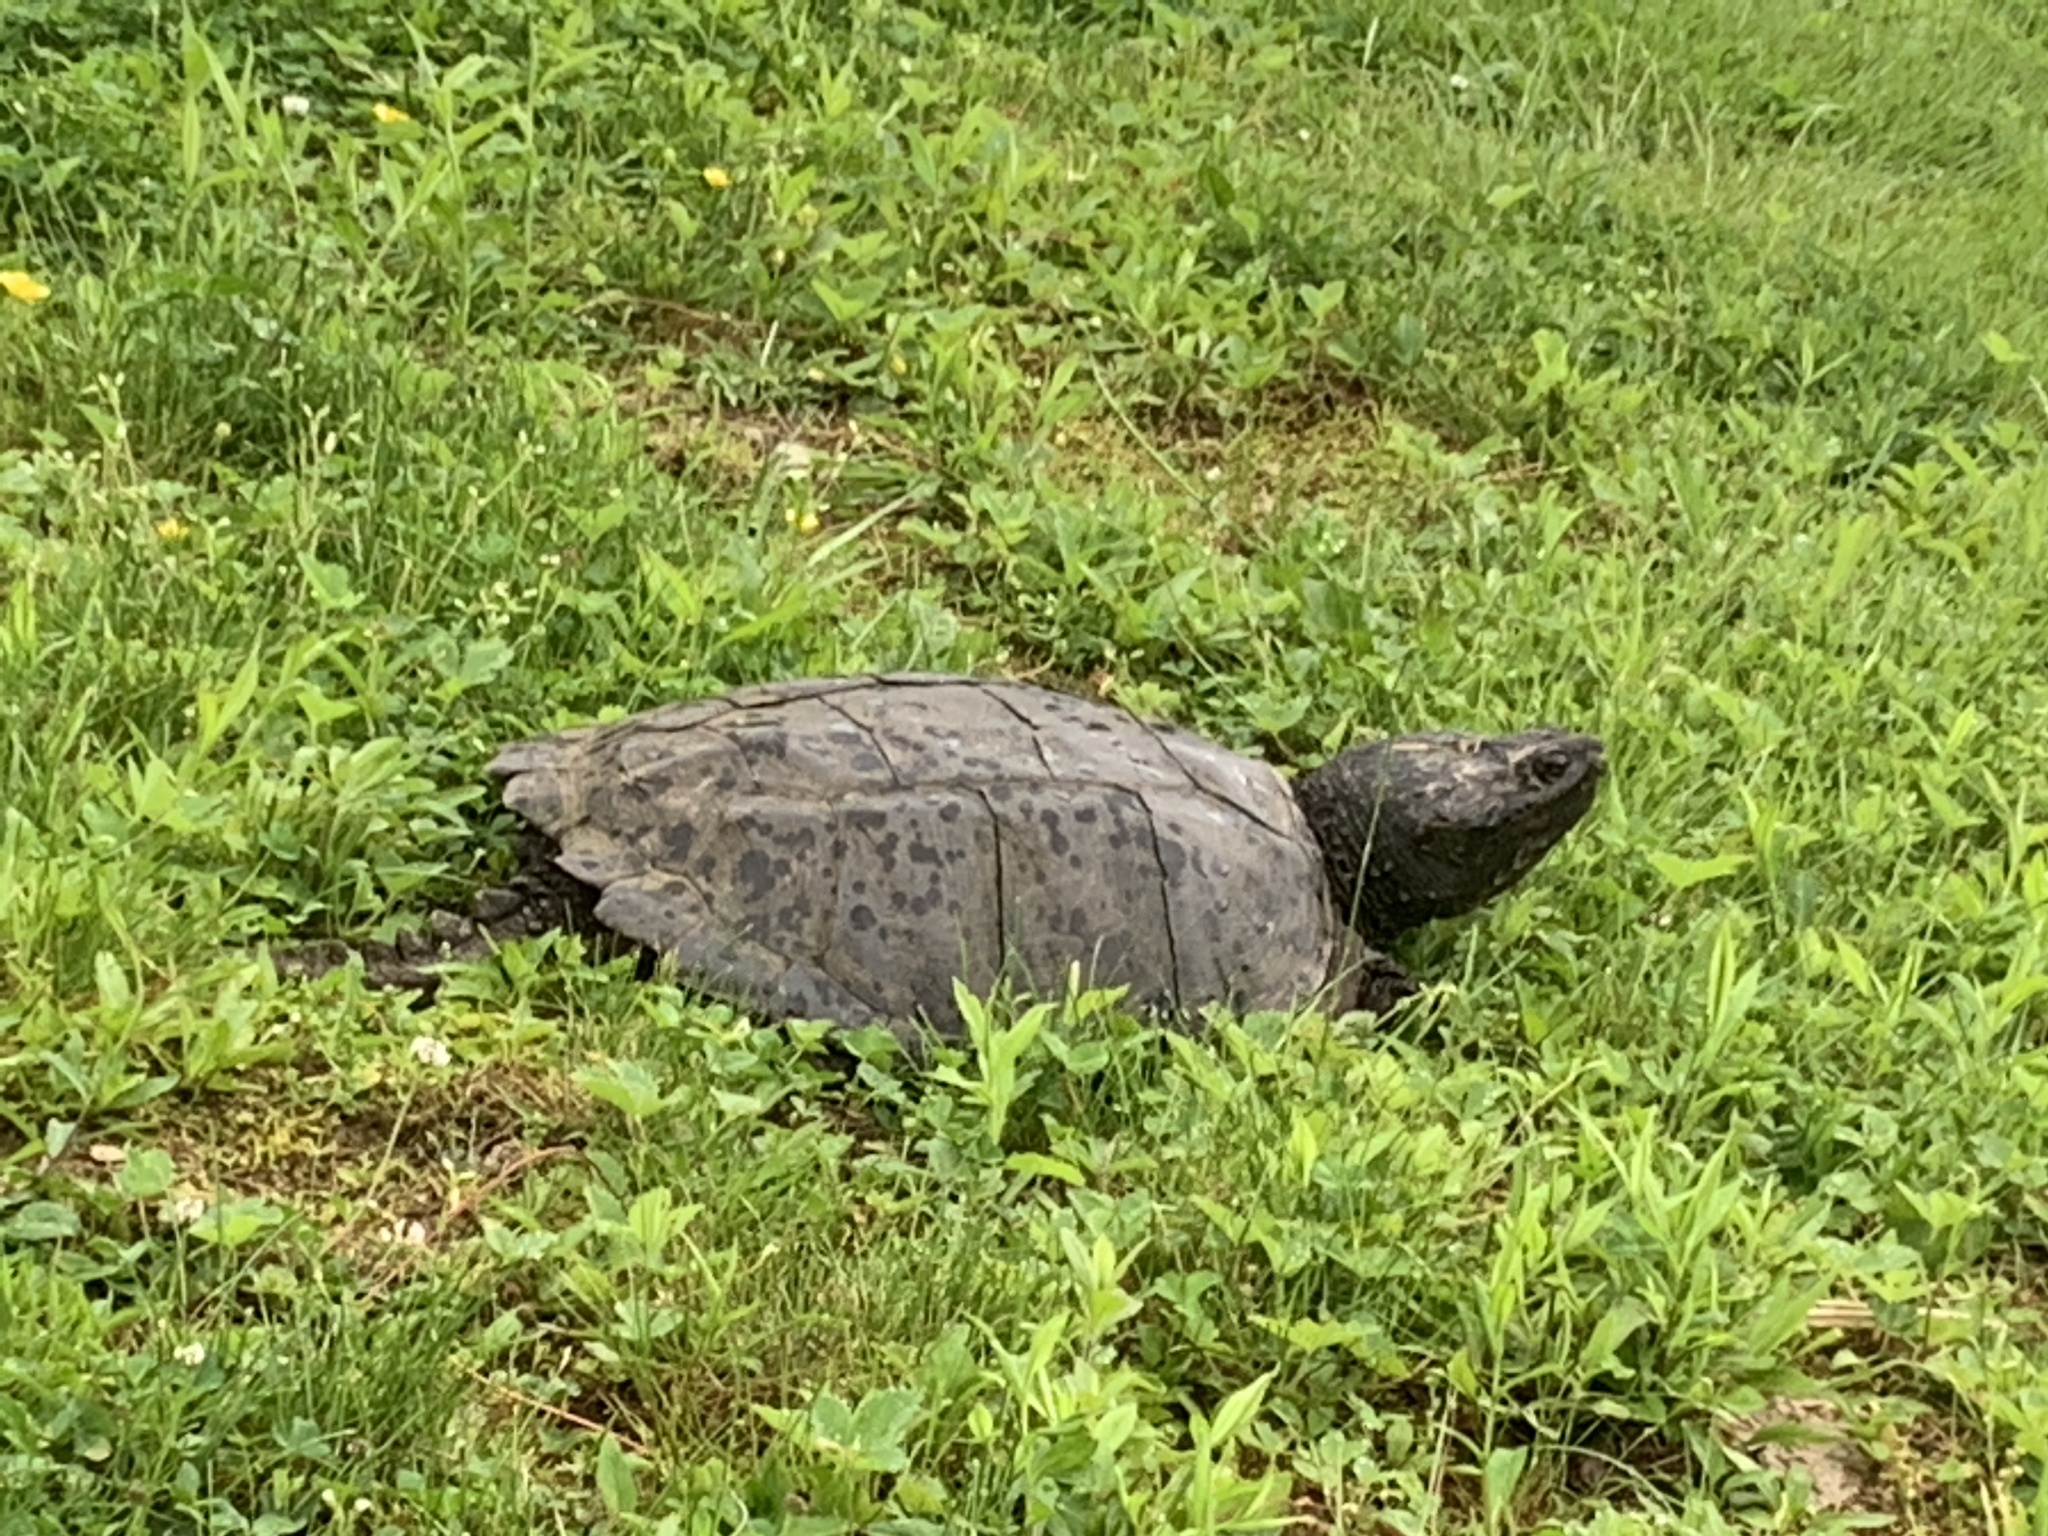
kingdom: Animalia
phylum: Chordata
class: Testudines
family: Chelydridae
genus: Chelydra
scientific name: Chelydra serpentina
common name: Common snapping turtle
